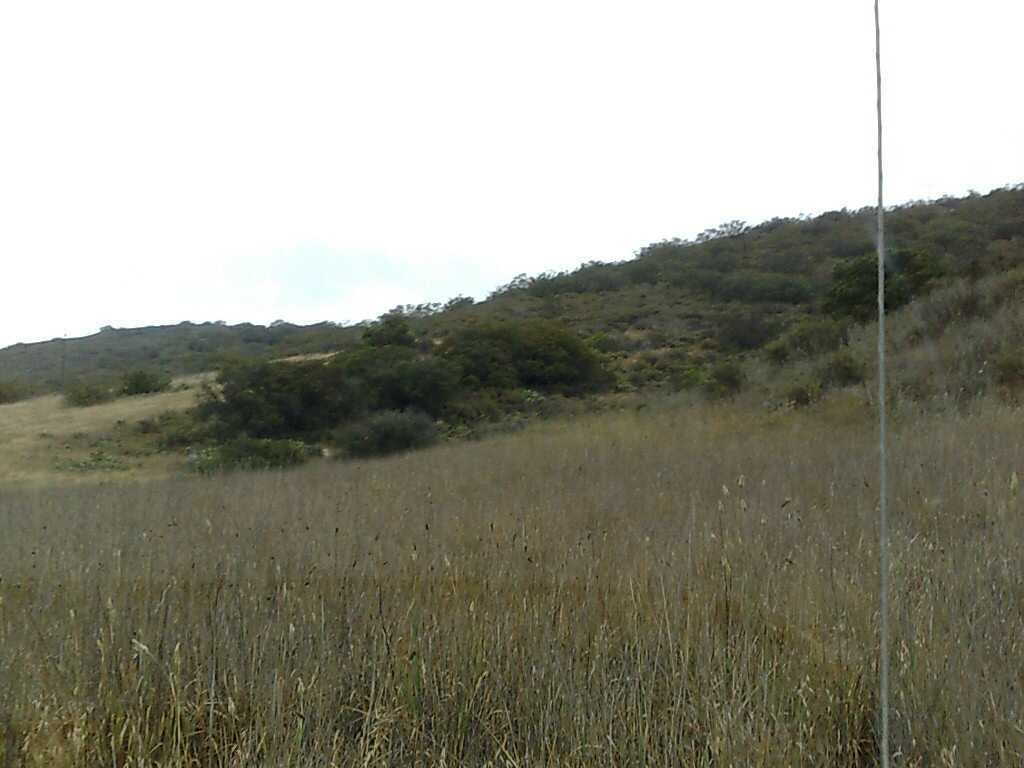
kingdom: Plantae
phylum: Tracheophyta
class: Liliopsida
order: Poales
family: Poaceae
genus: Phalaris
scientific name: Phalaris aquatica
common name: Bulbous canary-grass
